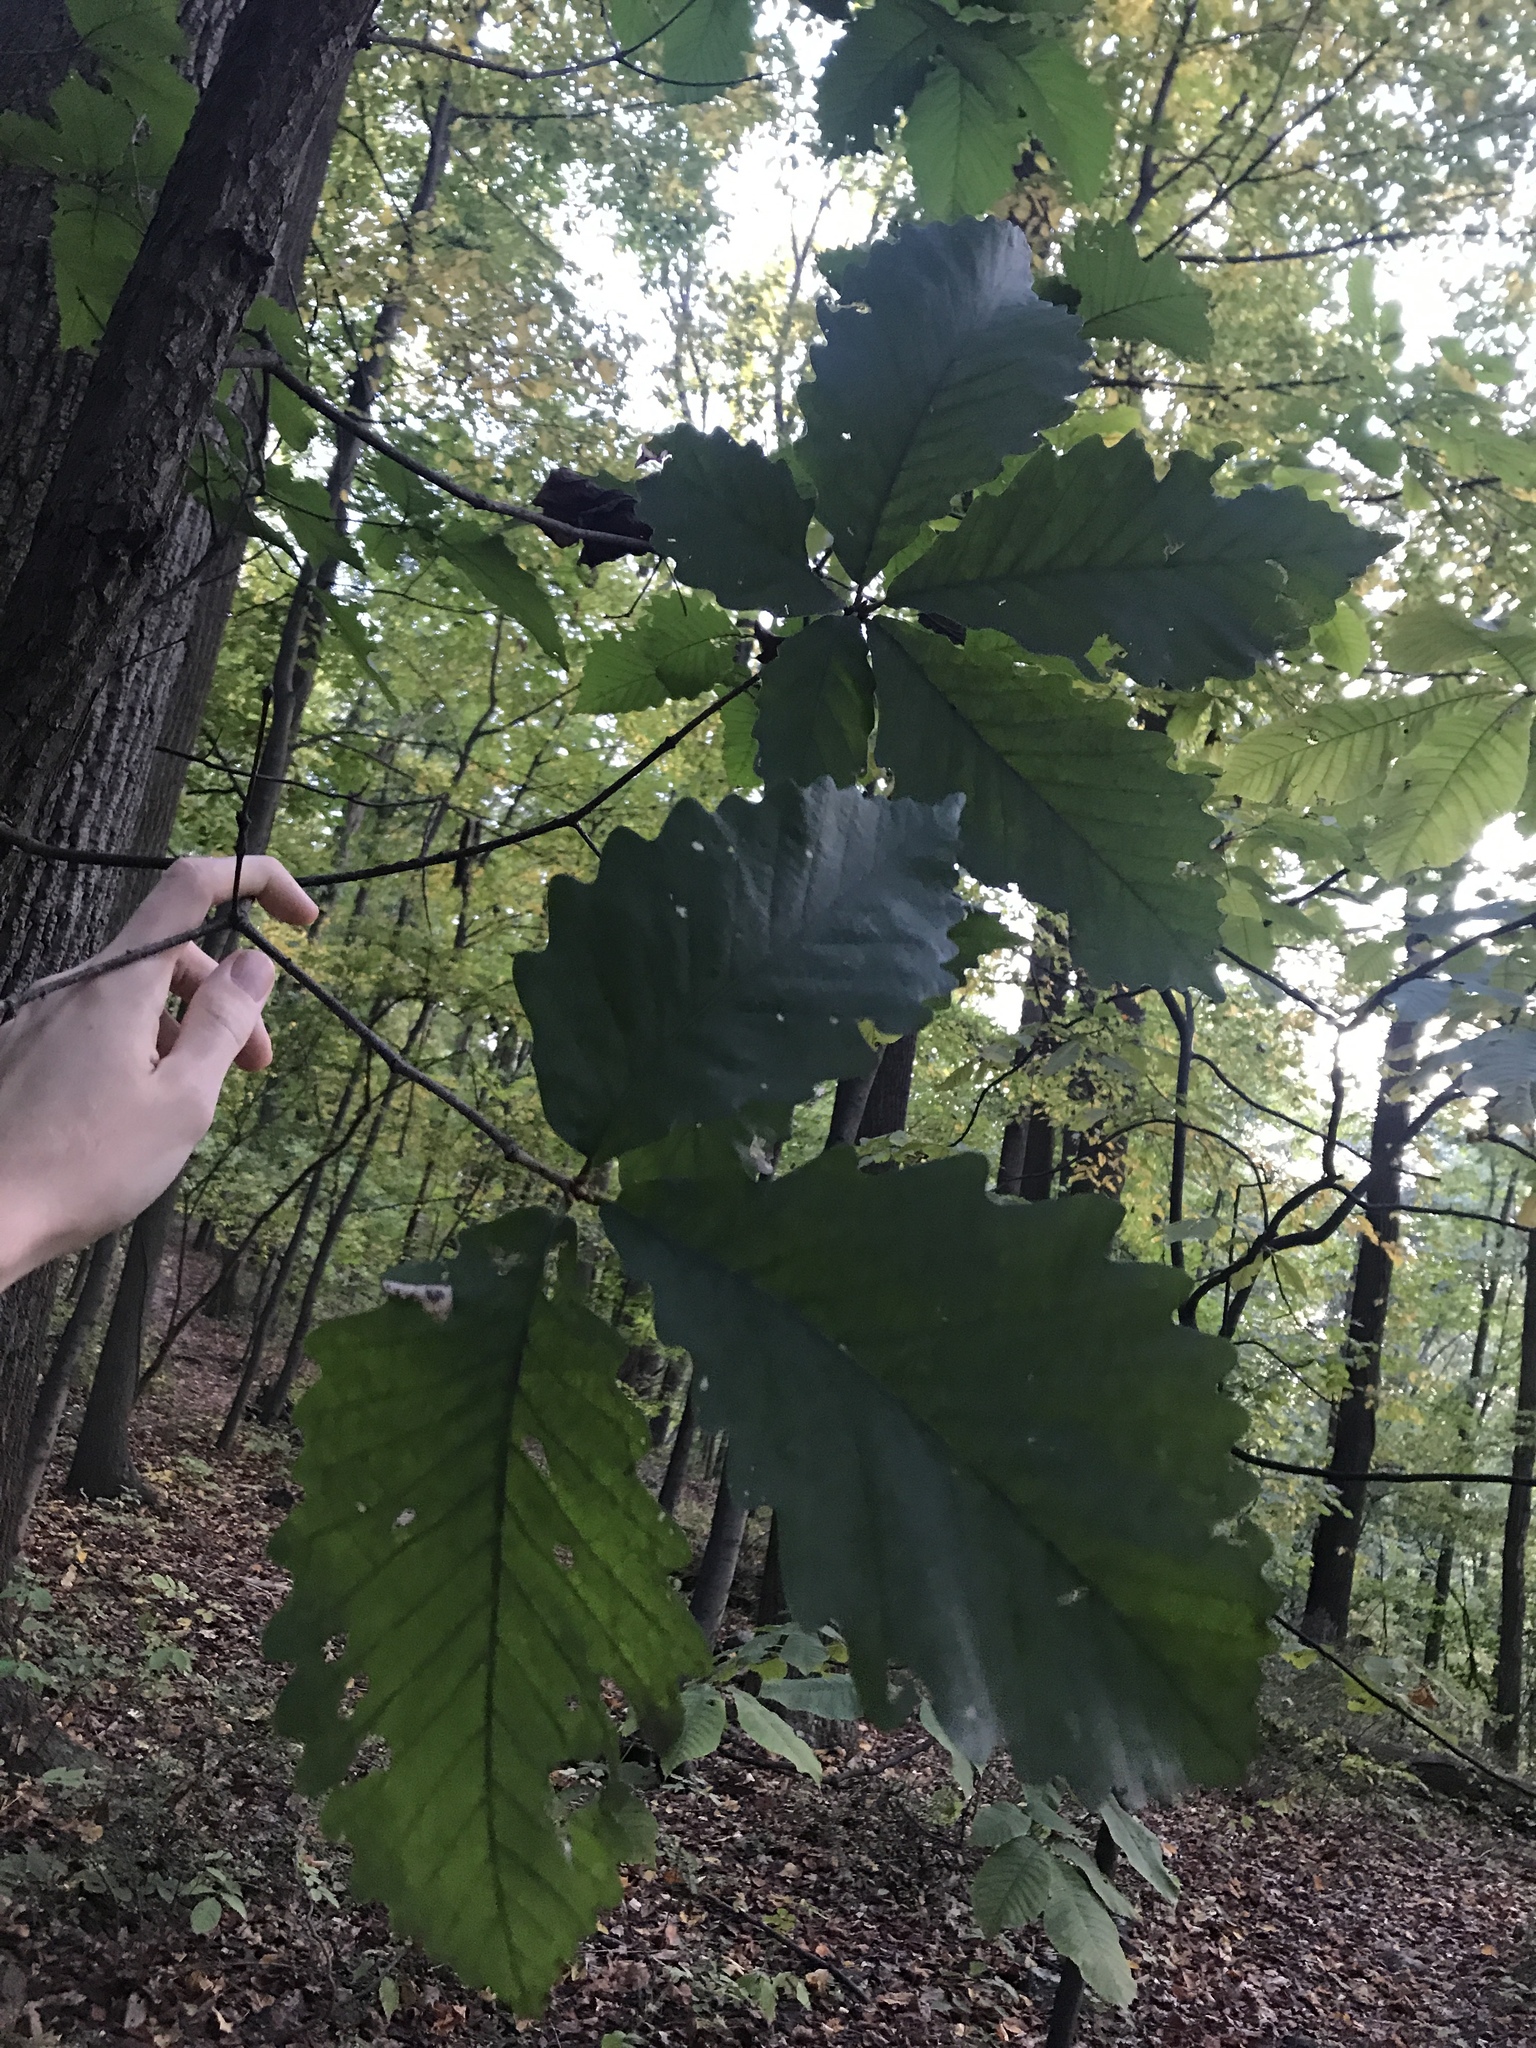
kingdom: Plantae
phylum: Tracheophyta
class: Magnoliopsida
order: Fagales
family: Fagaceae
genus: Quercus
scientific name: Quercus montana
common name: Chestnut oak
